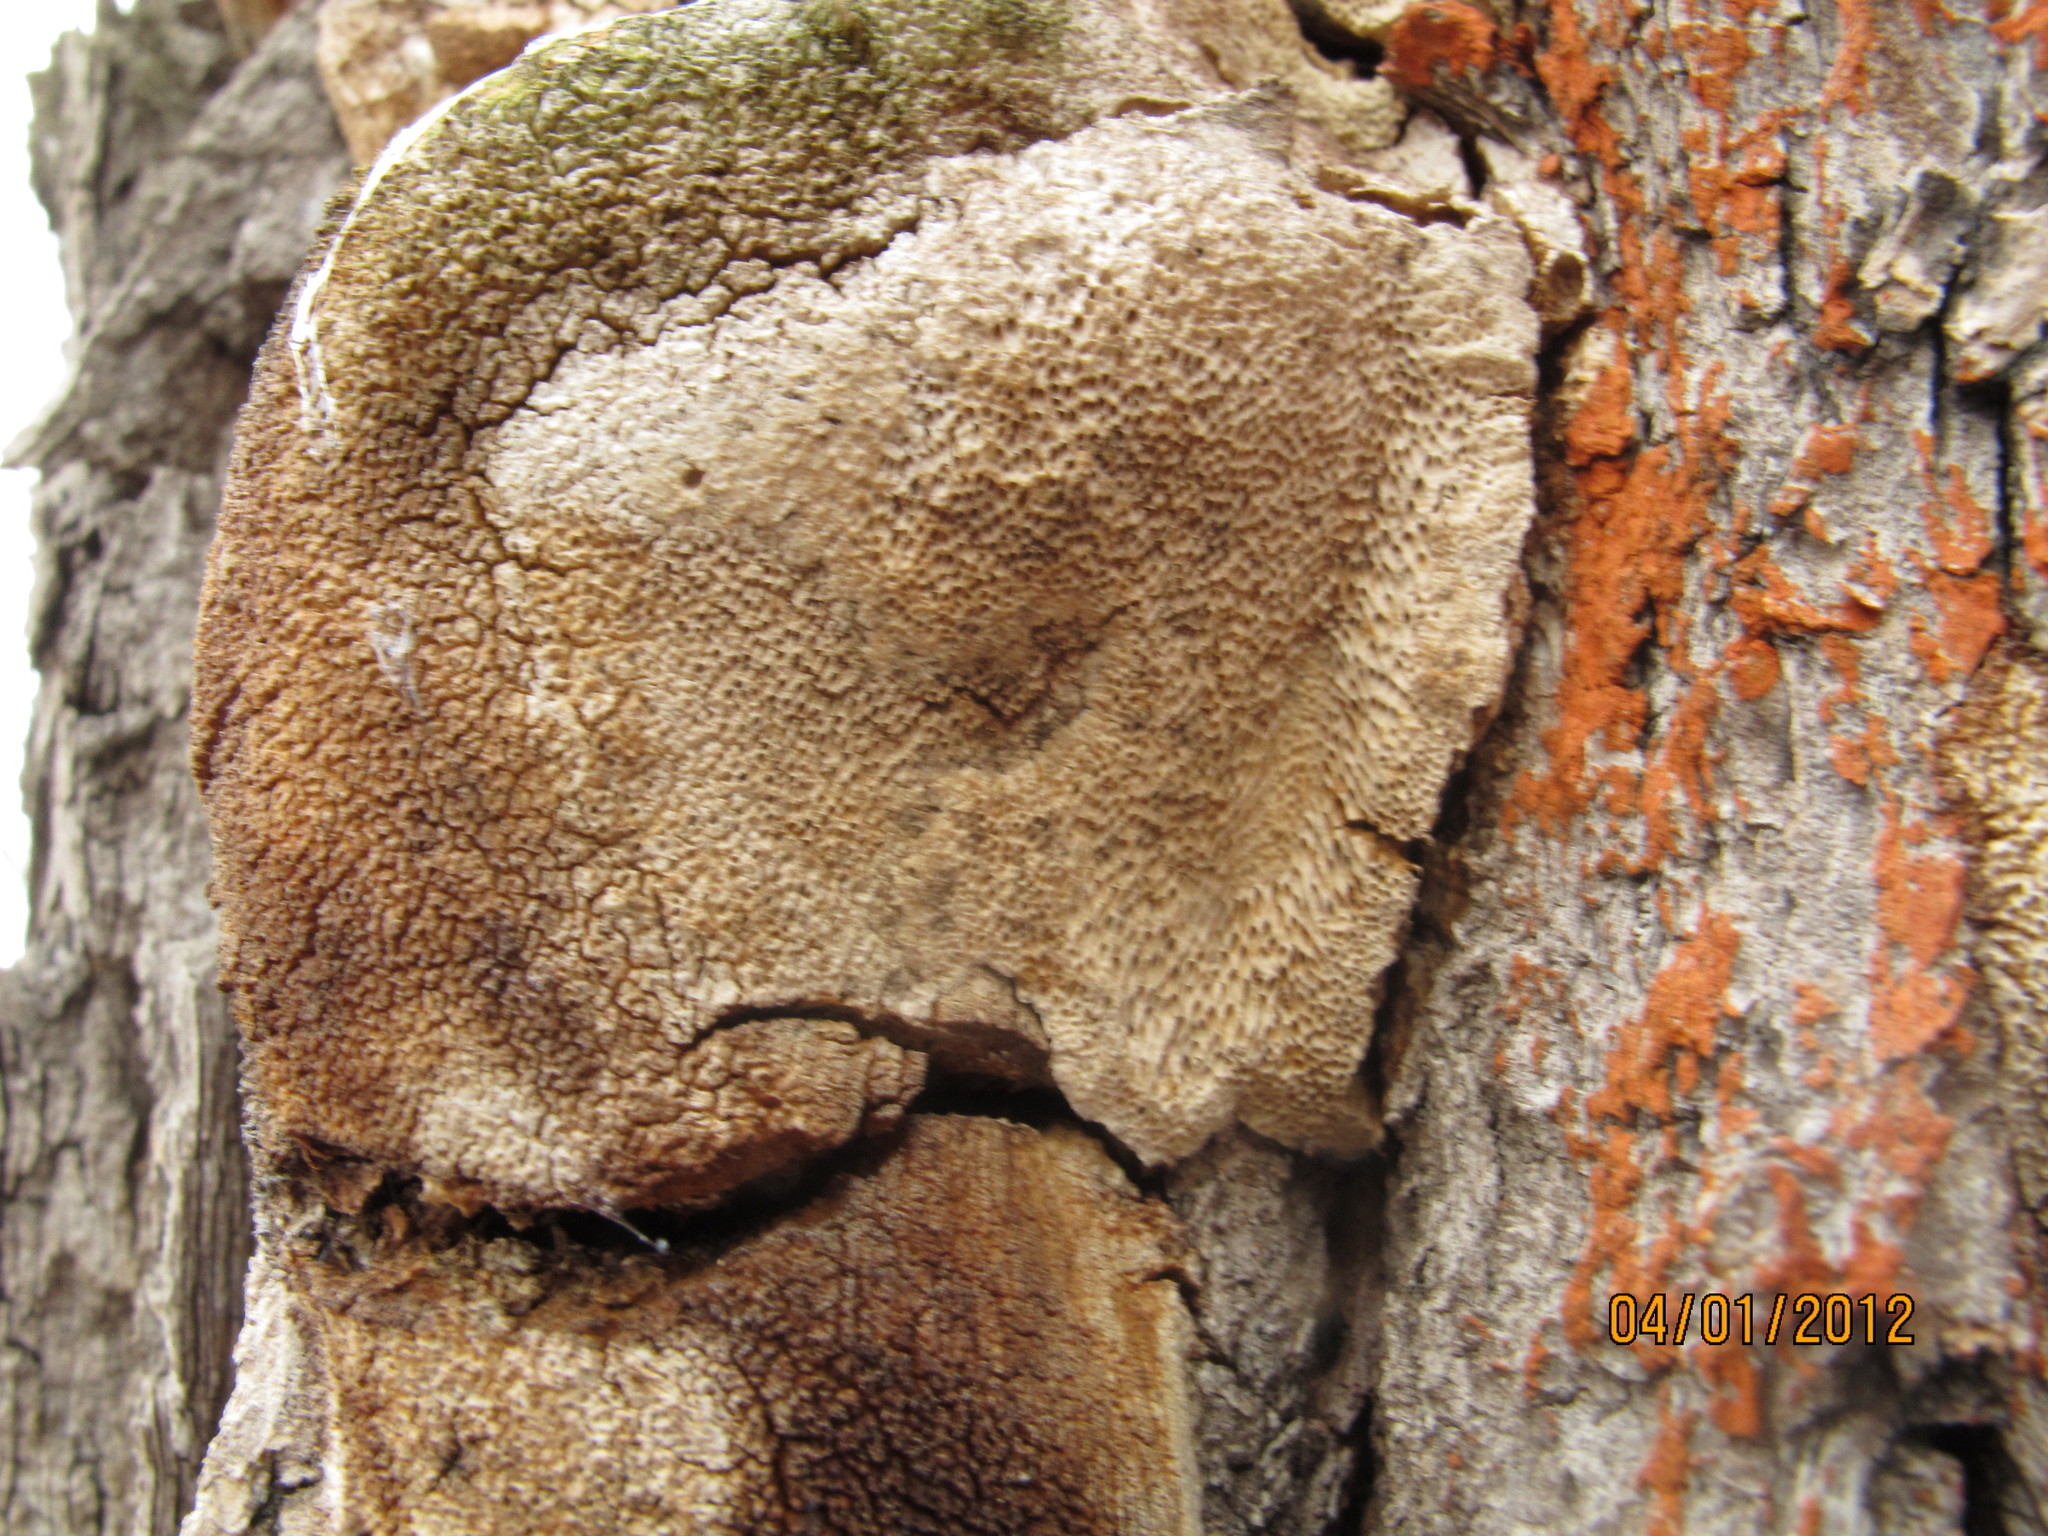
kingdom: Fungi
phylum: Basidiomycota
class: Agaricomycetes
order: Polyporales
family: Polyporaceae
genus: Perenniporia
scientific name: Perenniporia fraxinophila
